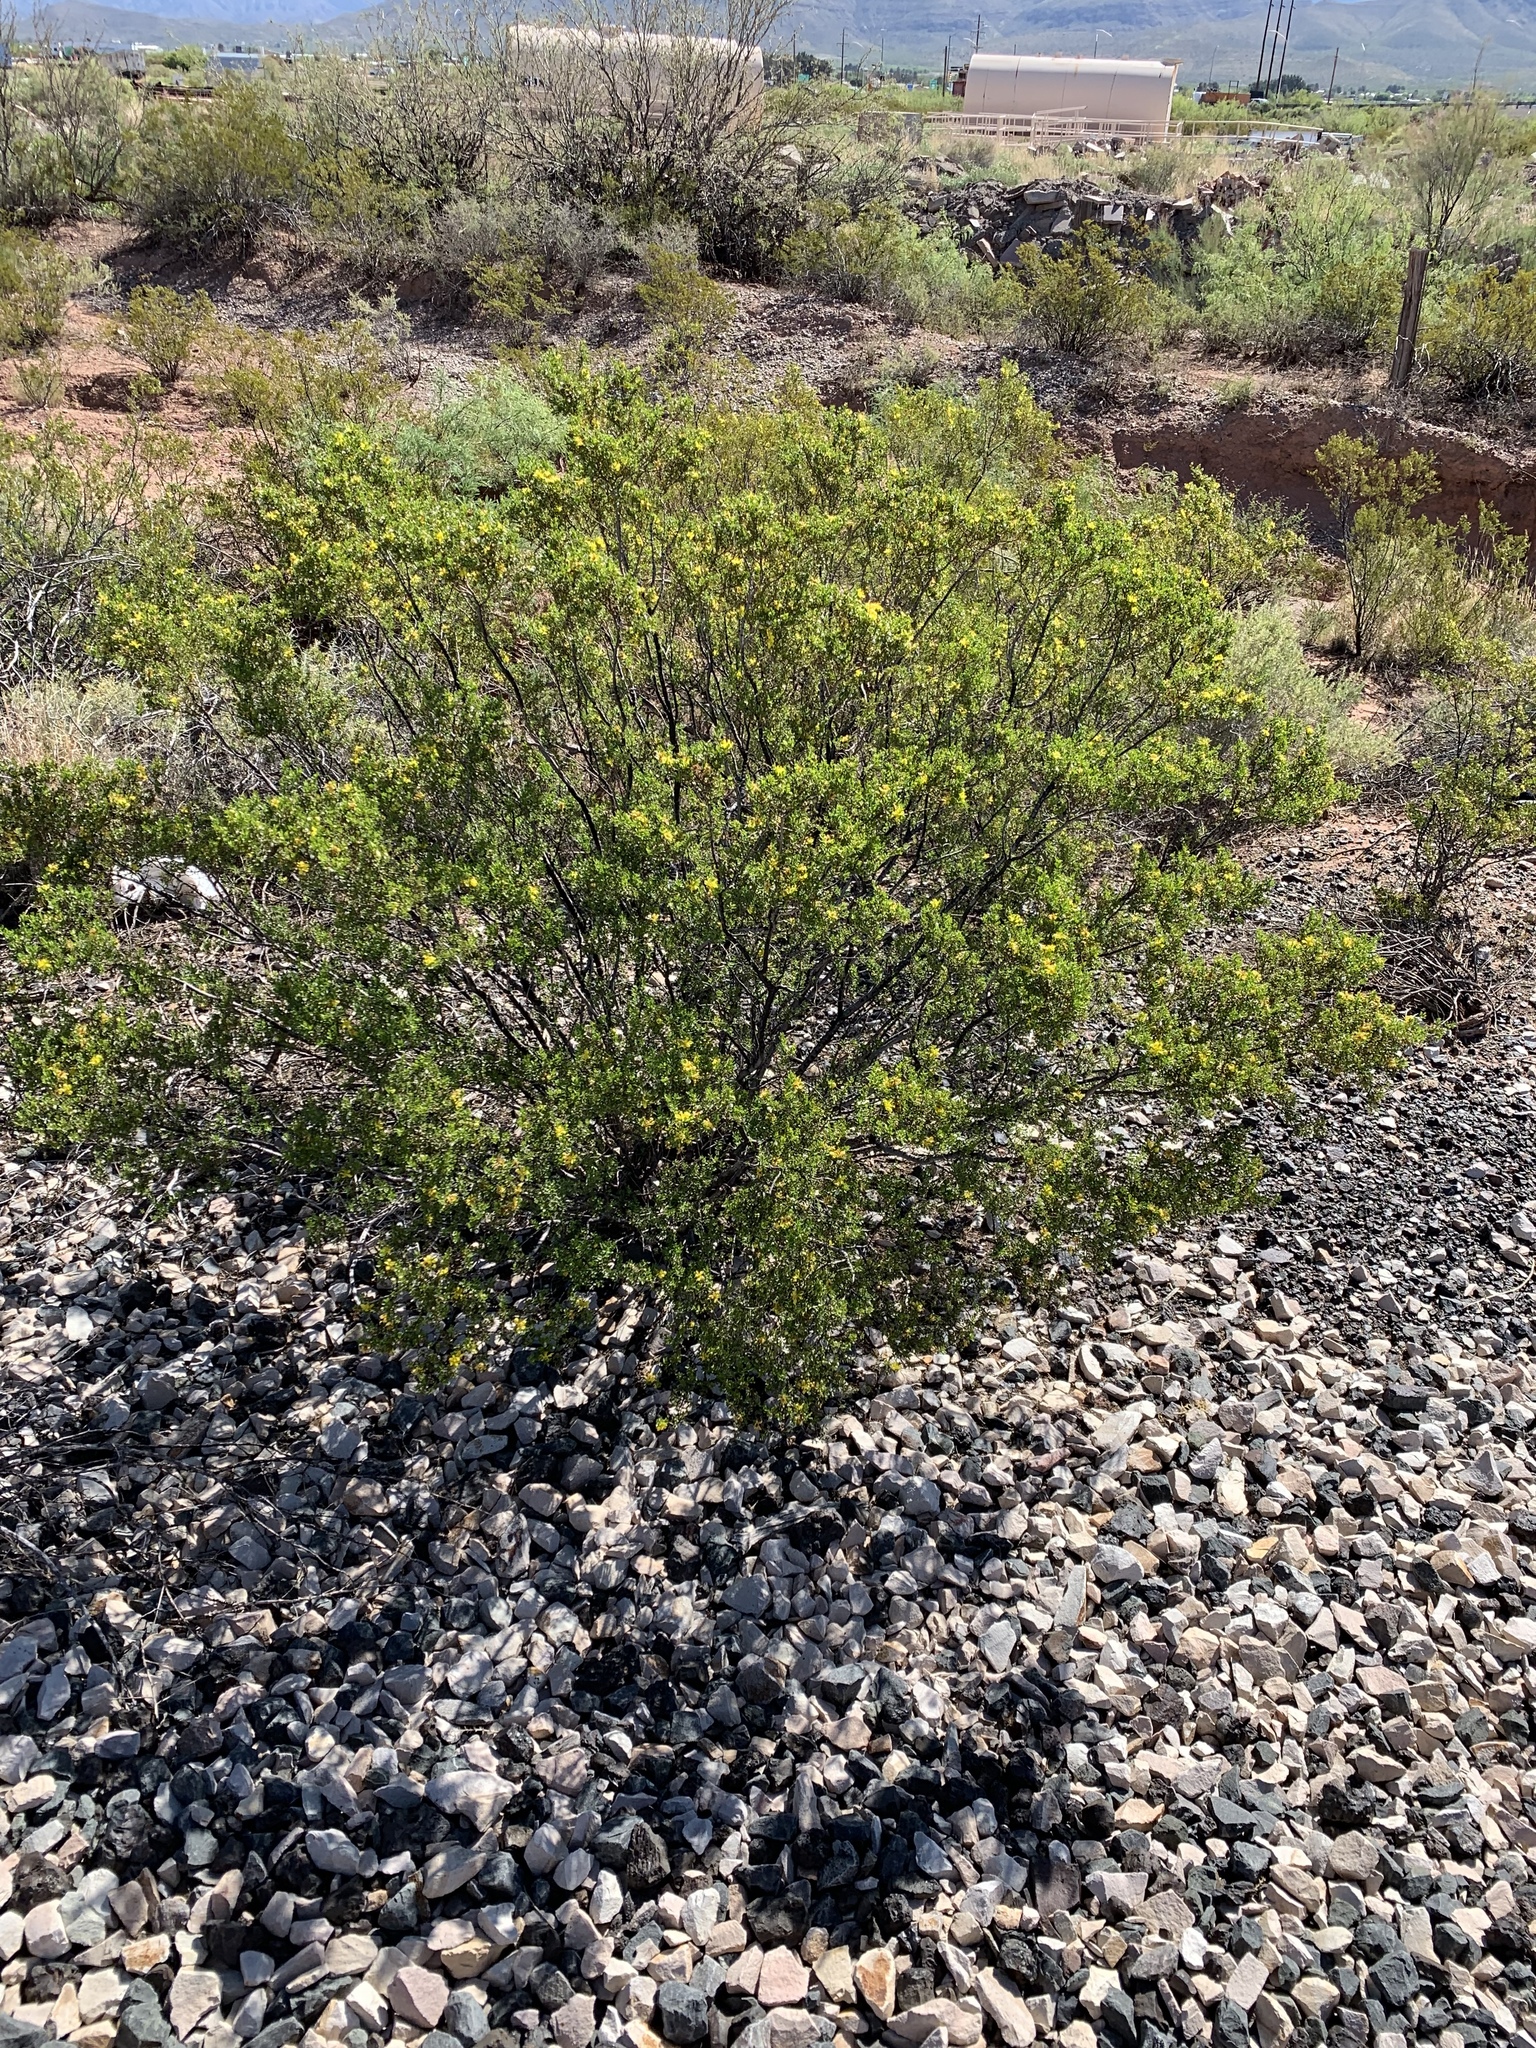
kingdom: Plantae
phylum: Tracheophyta
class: Magnoliopsida
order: Zygophyllales
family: Zygophyllaceae
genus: Larrea
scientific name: Larrea tridentata
